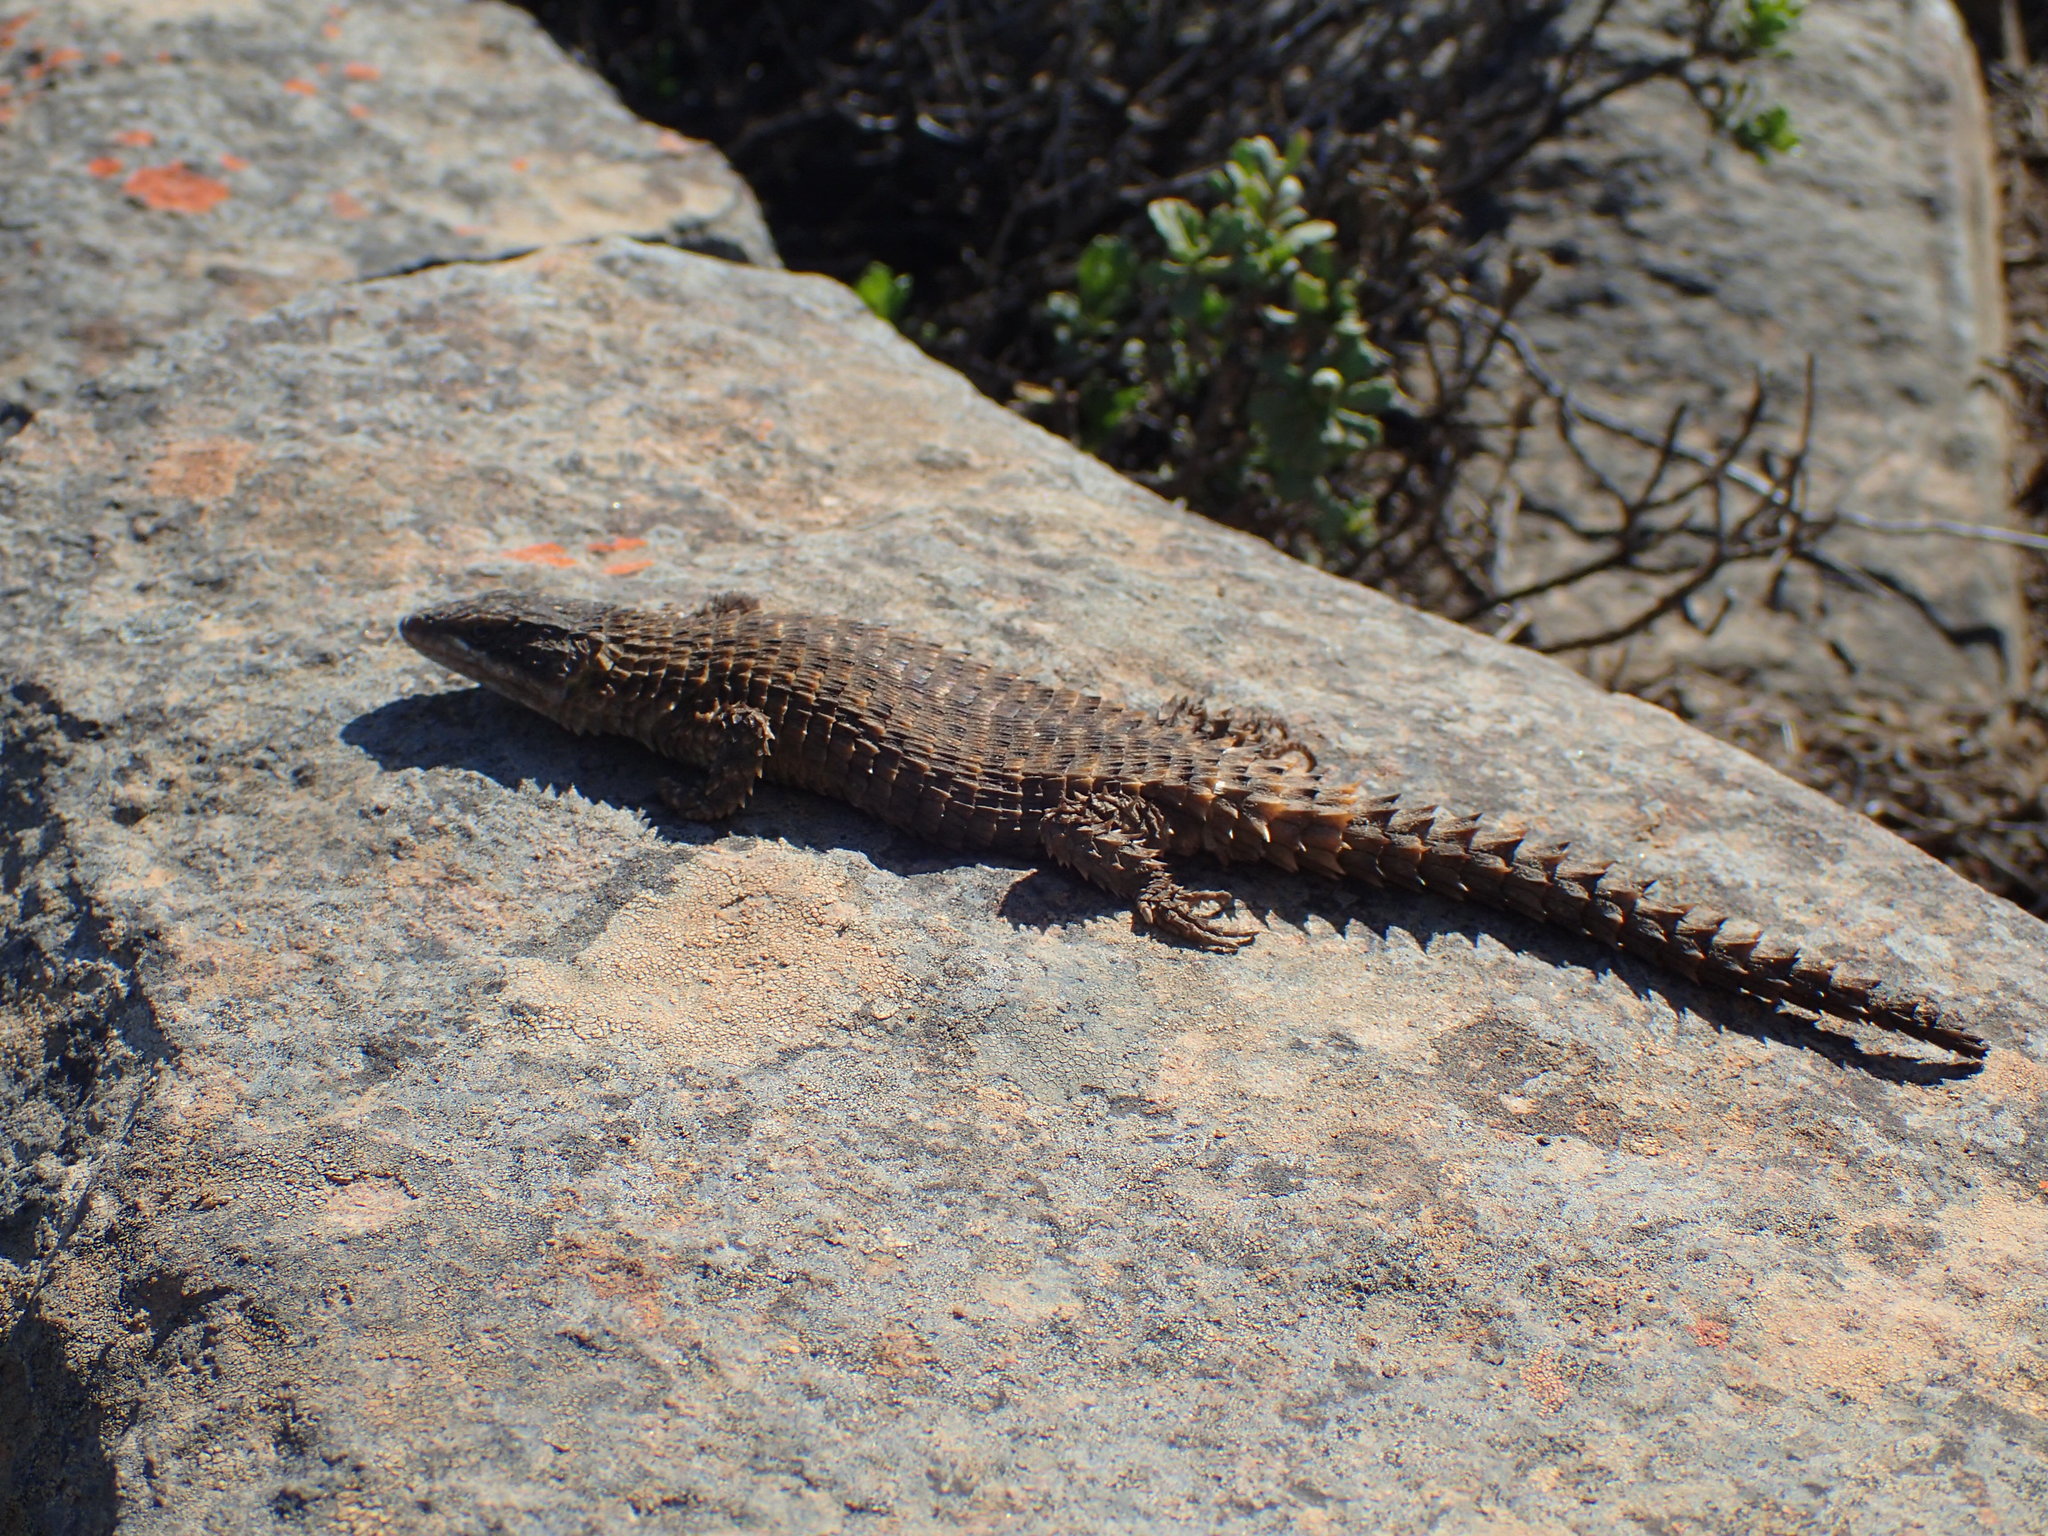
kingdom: Animalia
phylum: Chordata
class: Squamata
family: Cordylidae
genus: Cordylus
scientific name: Cordylus cordylus
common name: Cape girdled lizard
